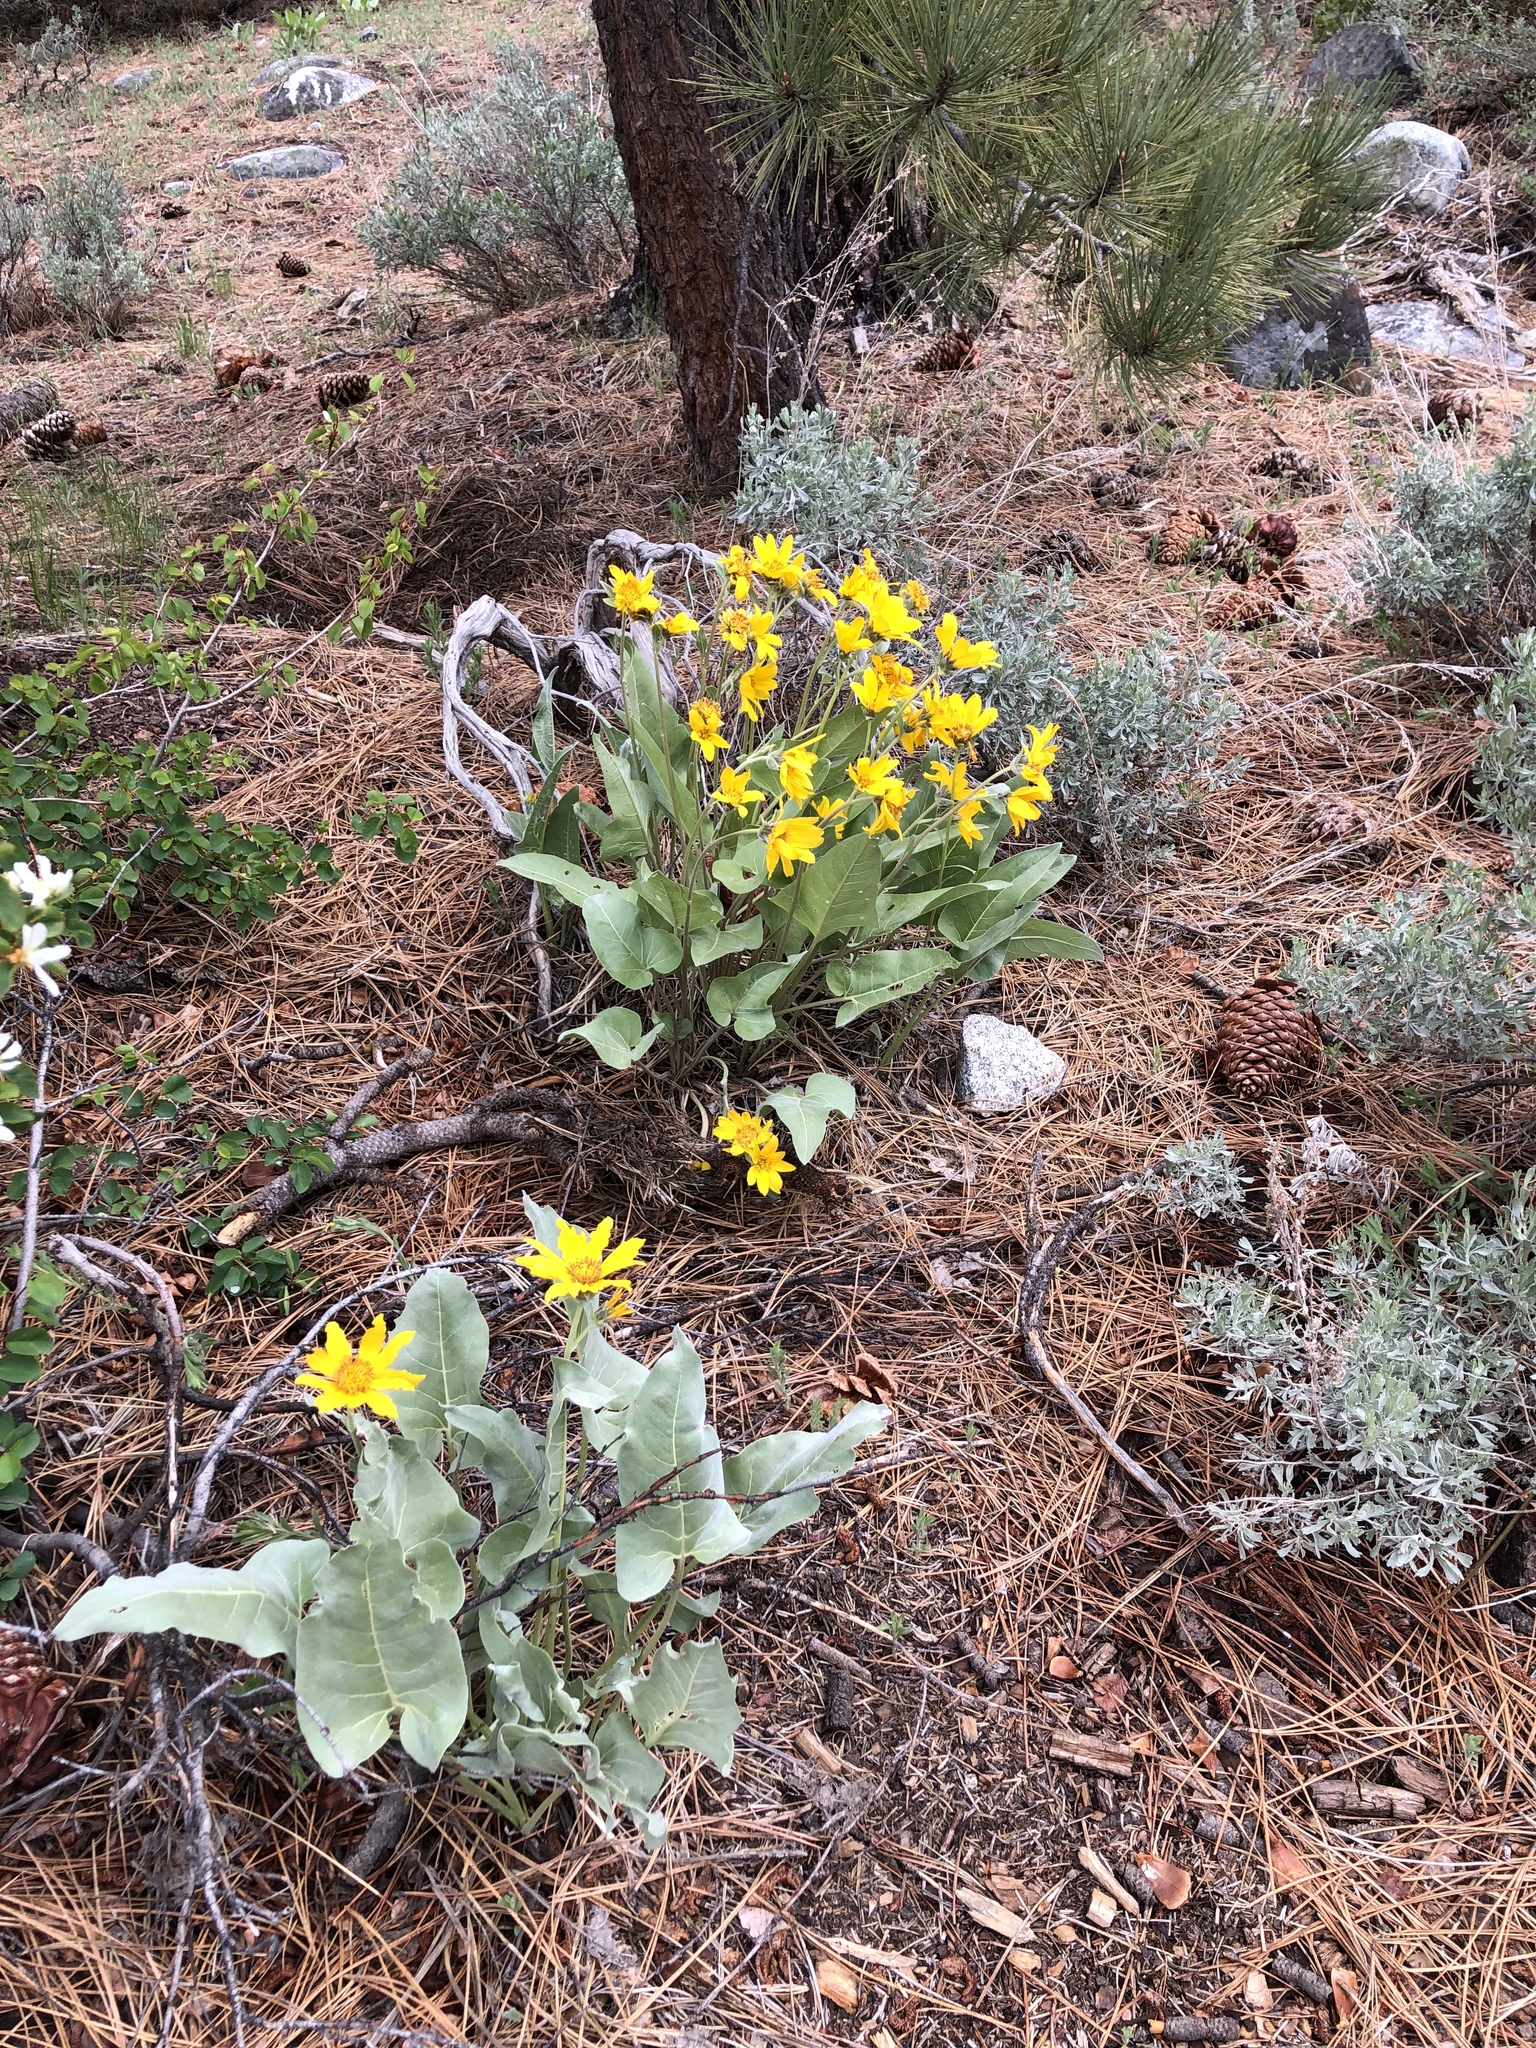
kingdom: Plantae
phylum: Tracheophyta
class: Magnoliopsida
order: Asterales
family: Asteraceae
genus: Wyethia
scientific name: Wyethia sagittata
